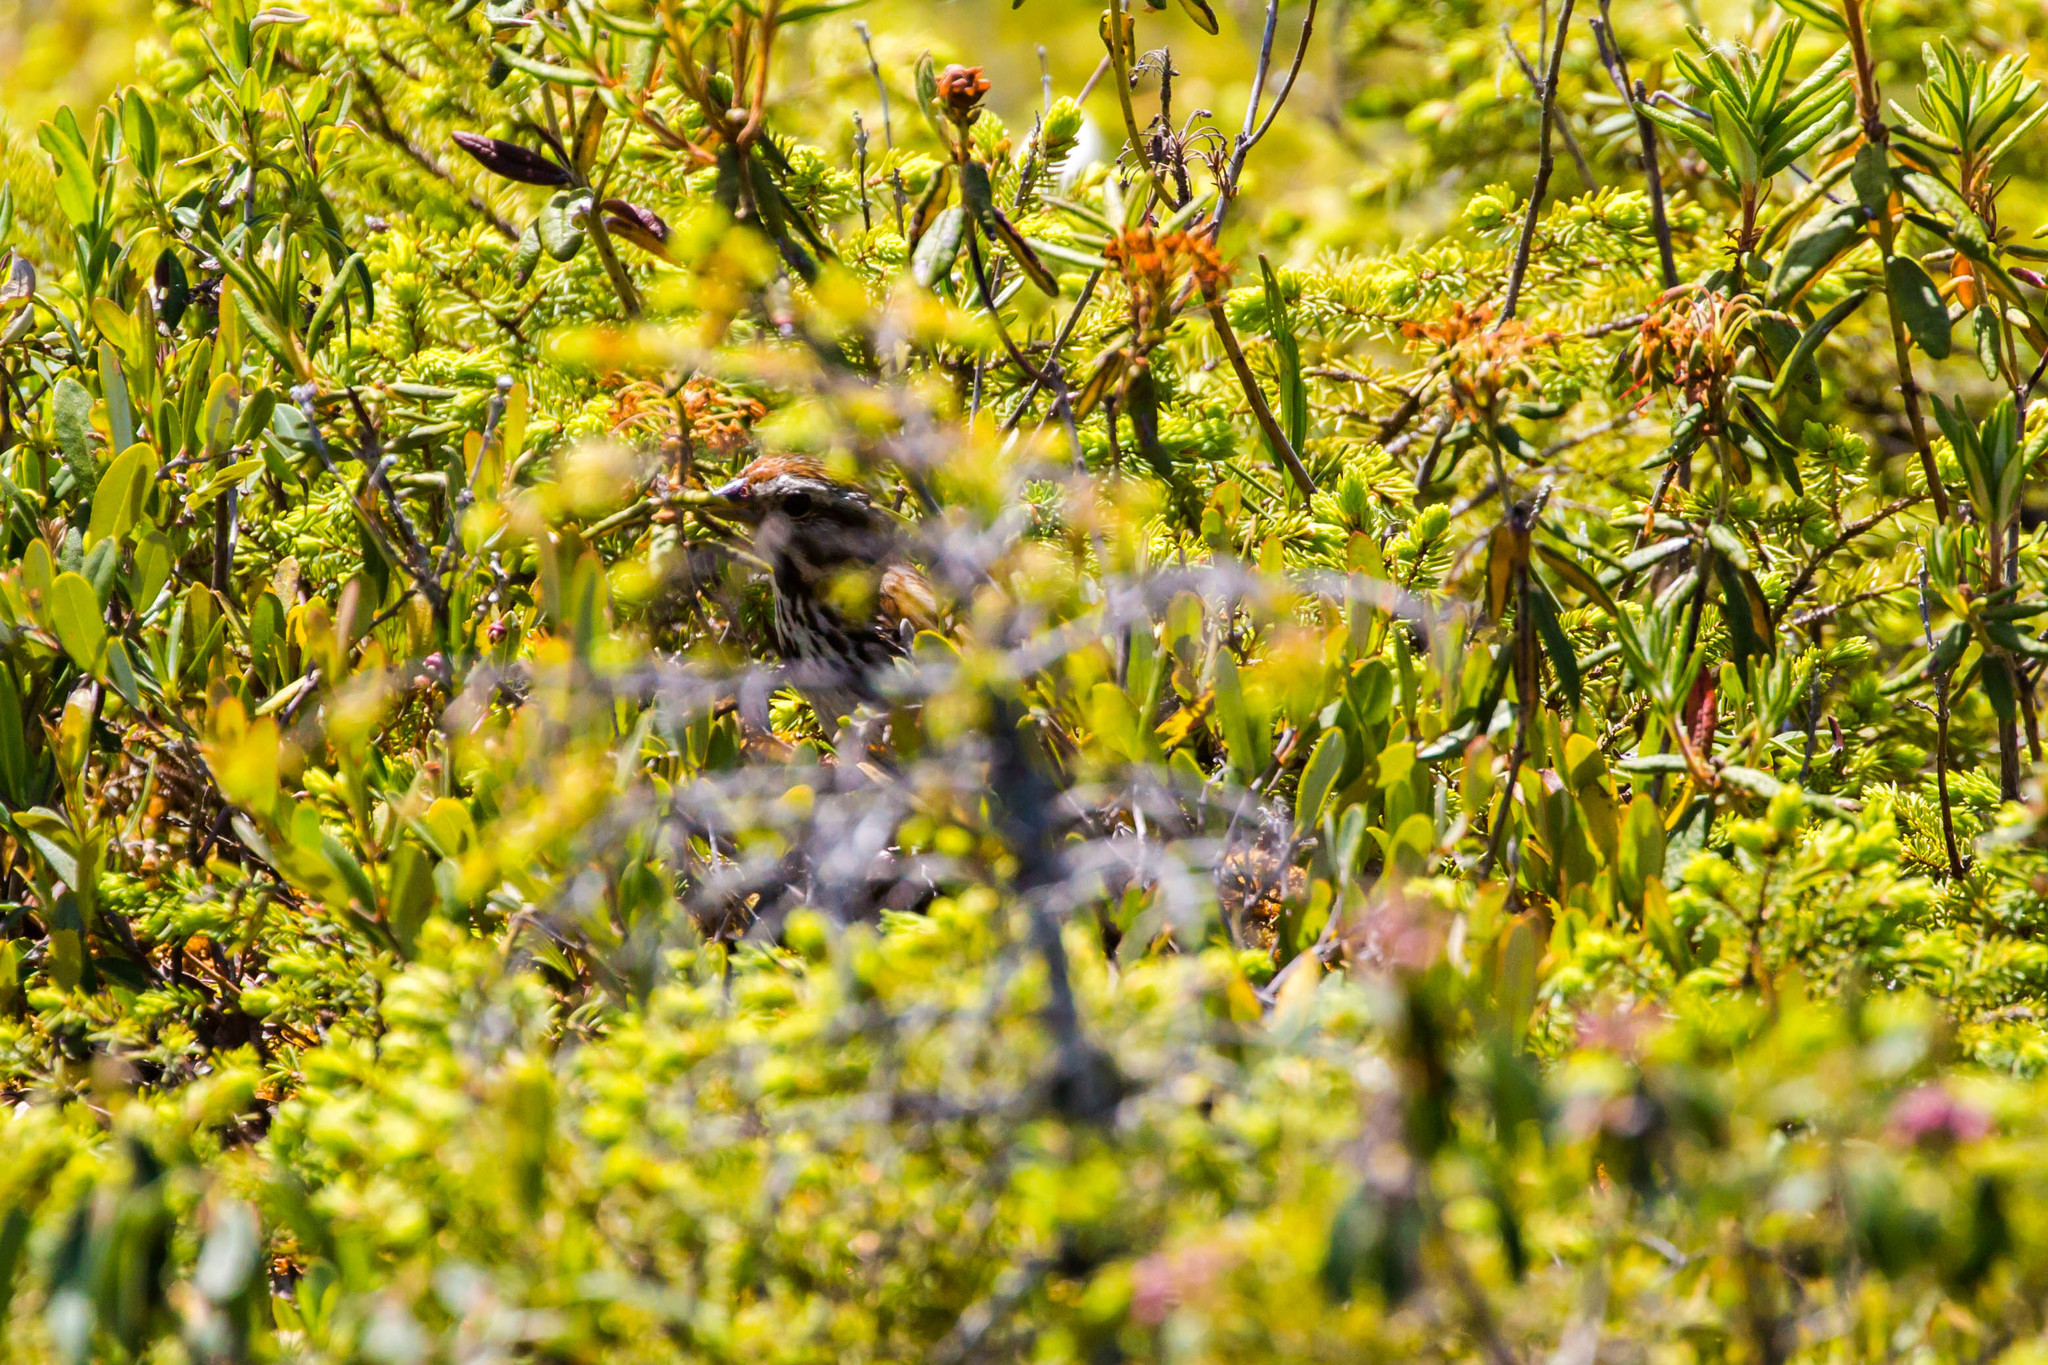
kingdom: Animalia
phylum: Chordata
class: Aves
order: Passeriformes
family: Passerellidae
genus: Melospiza
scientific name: Melospiza melodia
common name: Song sparrow
